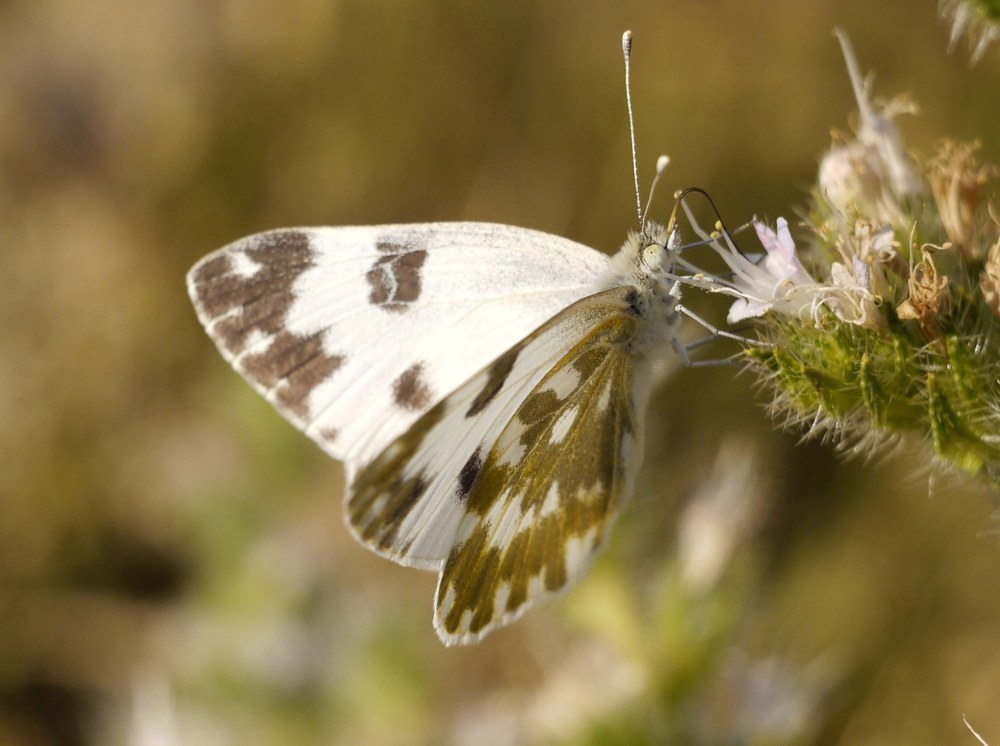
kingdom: Animalia
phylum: Arthropoda
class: Insecta
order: Lepidoptera
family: Pieridae
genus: Pontia
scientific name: Pontia edusa
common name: Eastern bath white
